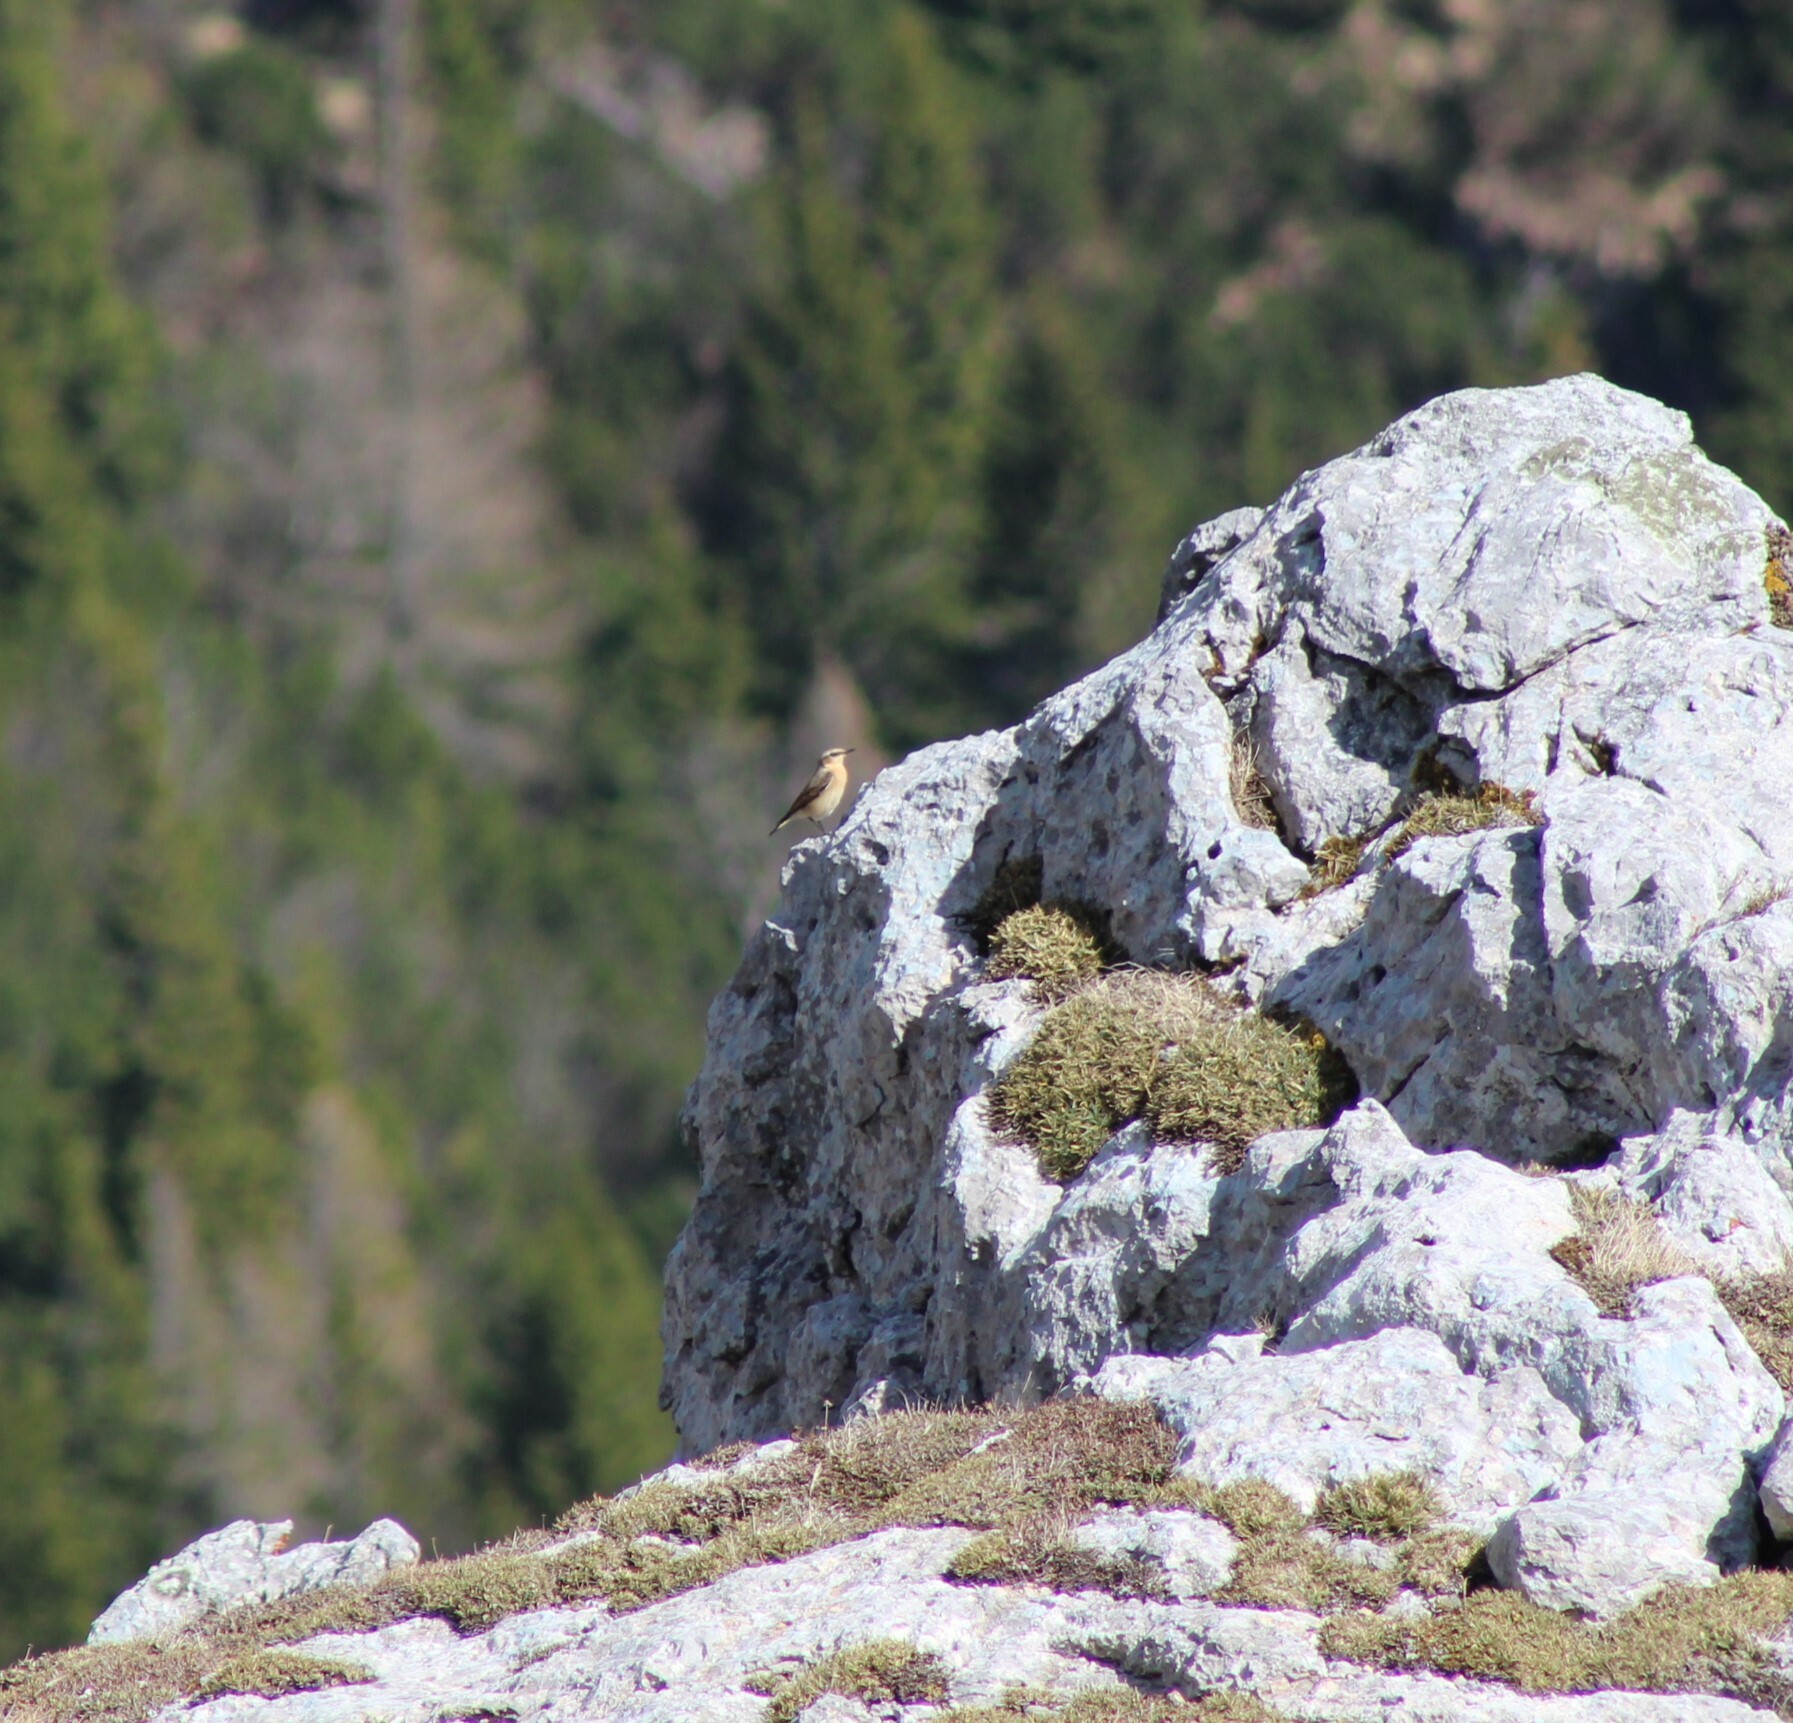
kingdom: Animalia
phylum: Chordata
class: Aves
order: Passeriformes
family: Muscicapidae
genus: Oenanthe
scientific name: Oenanthe oenanthe
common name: Northern wheatear
